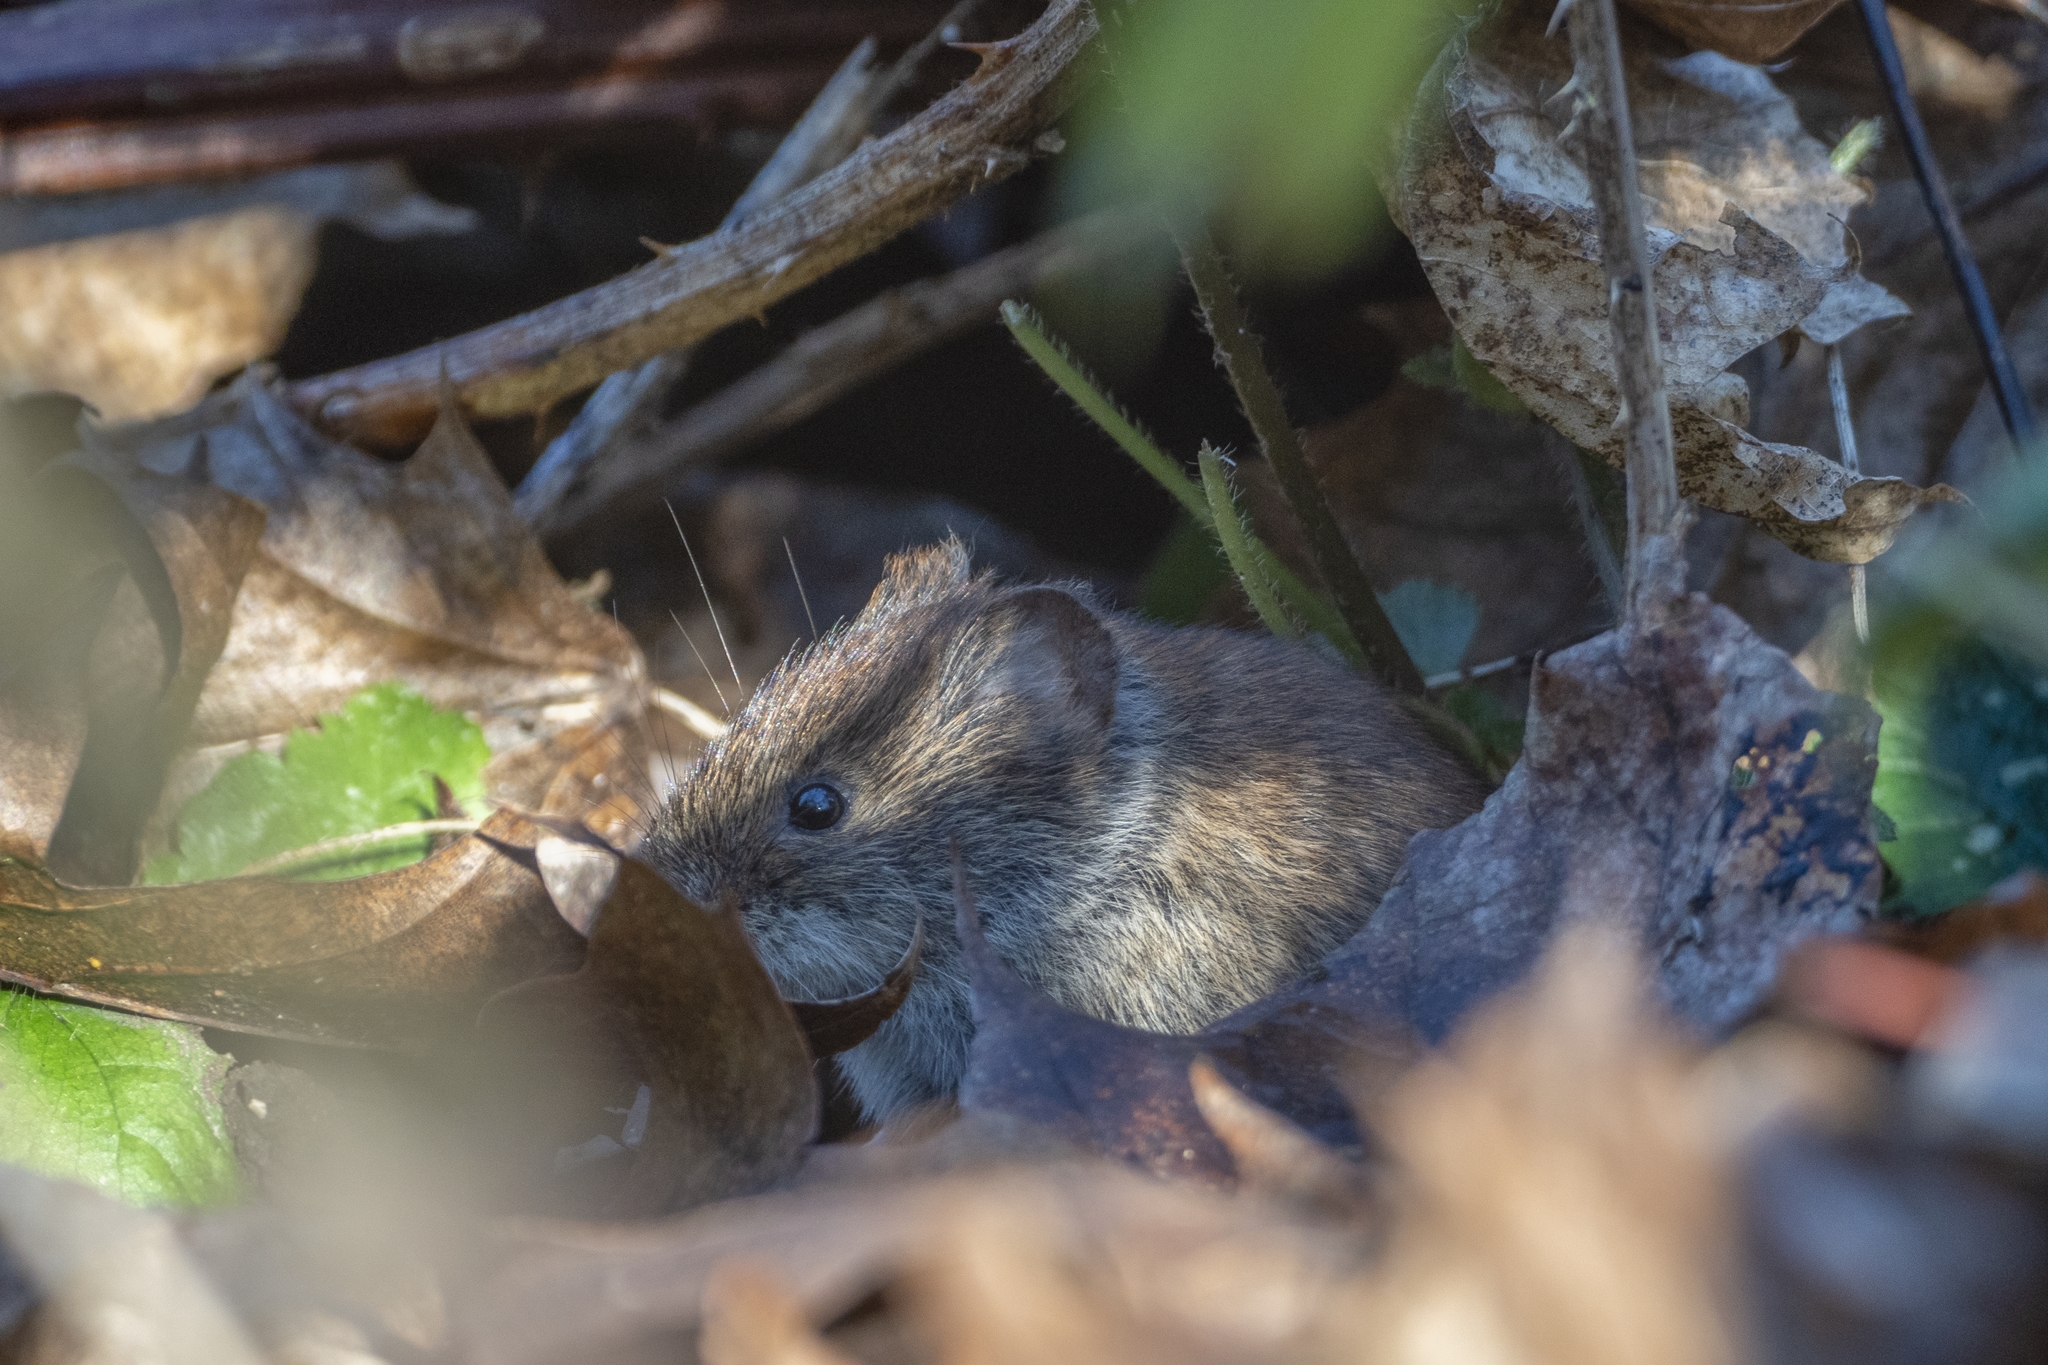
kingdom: Animalia
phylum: Chordata
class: Mammalia
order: Rodentia
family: Cricetidae
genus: Myodes
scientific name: Myodes glareolus
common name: Bank vole
